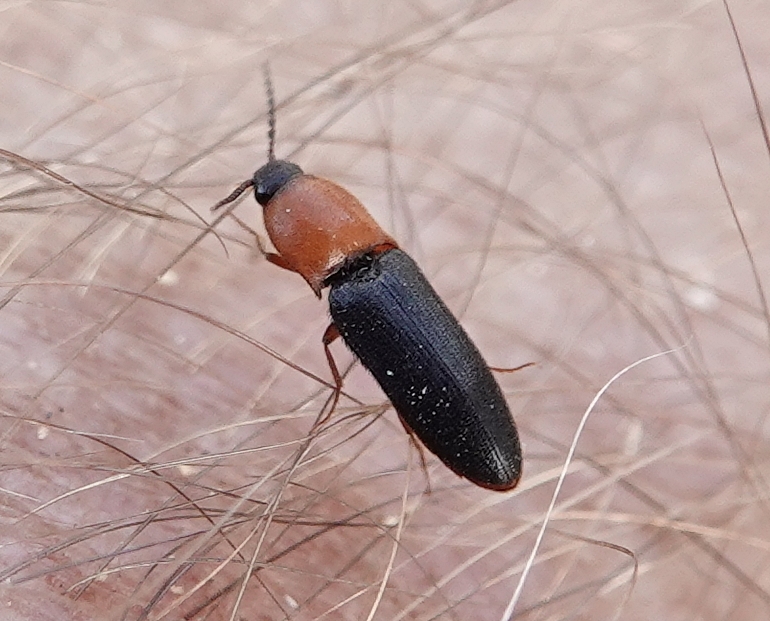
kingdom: Animalia
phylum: Arthropoda
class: Insecta
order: Coleoptera
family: Elateridae
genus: Ampedus
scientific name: Ampedus atripennis
